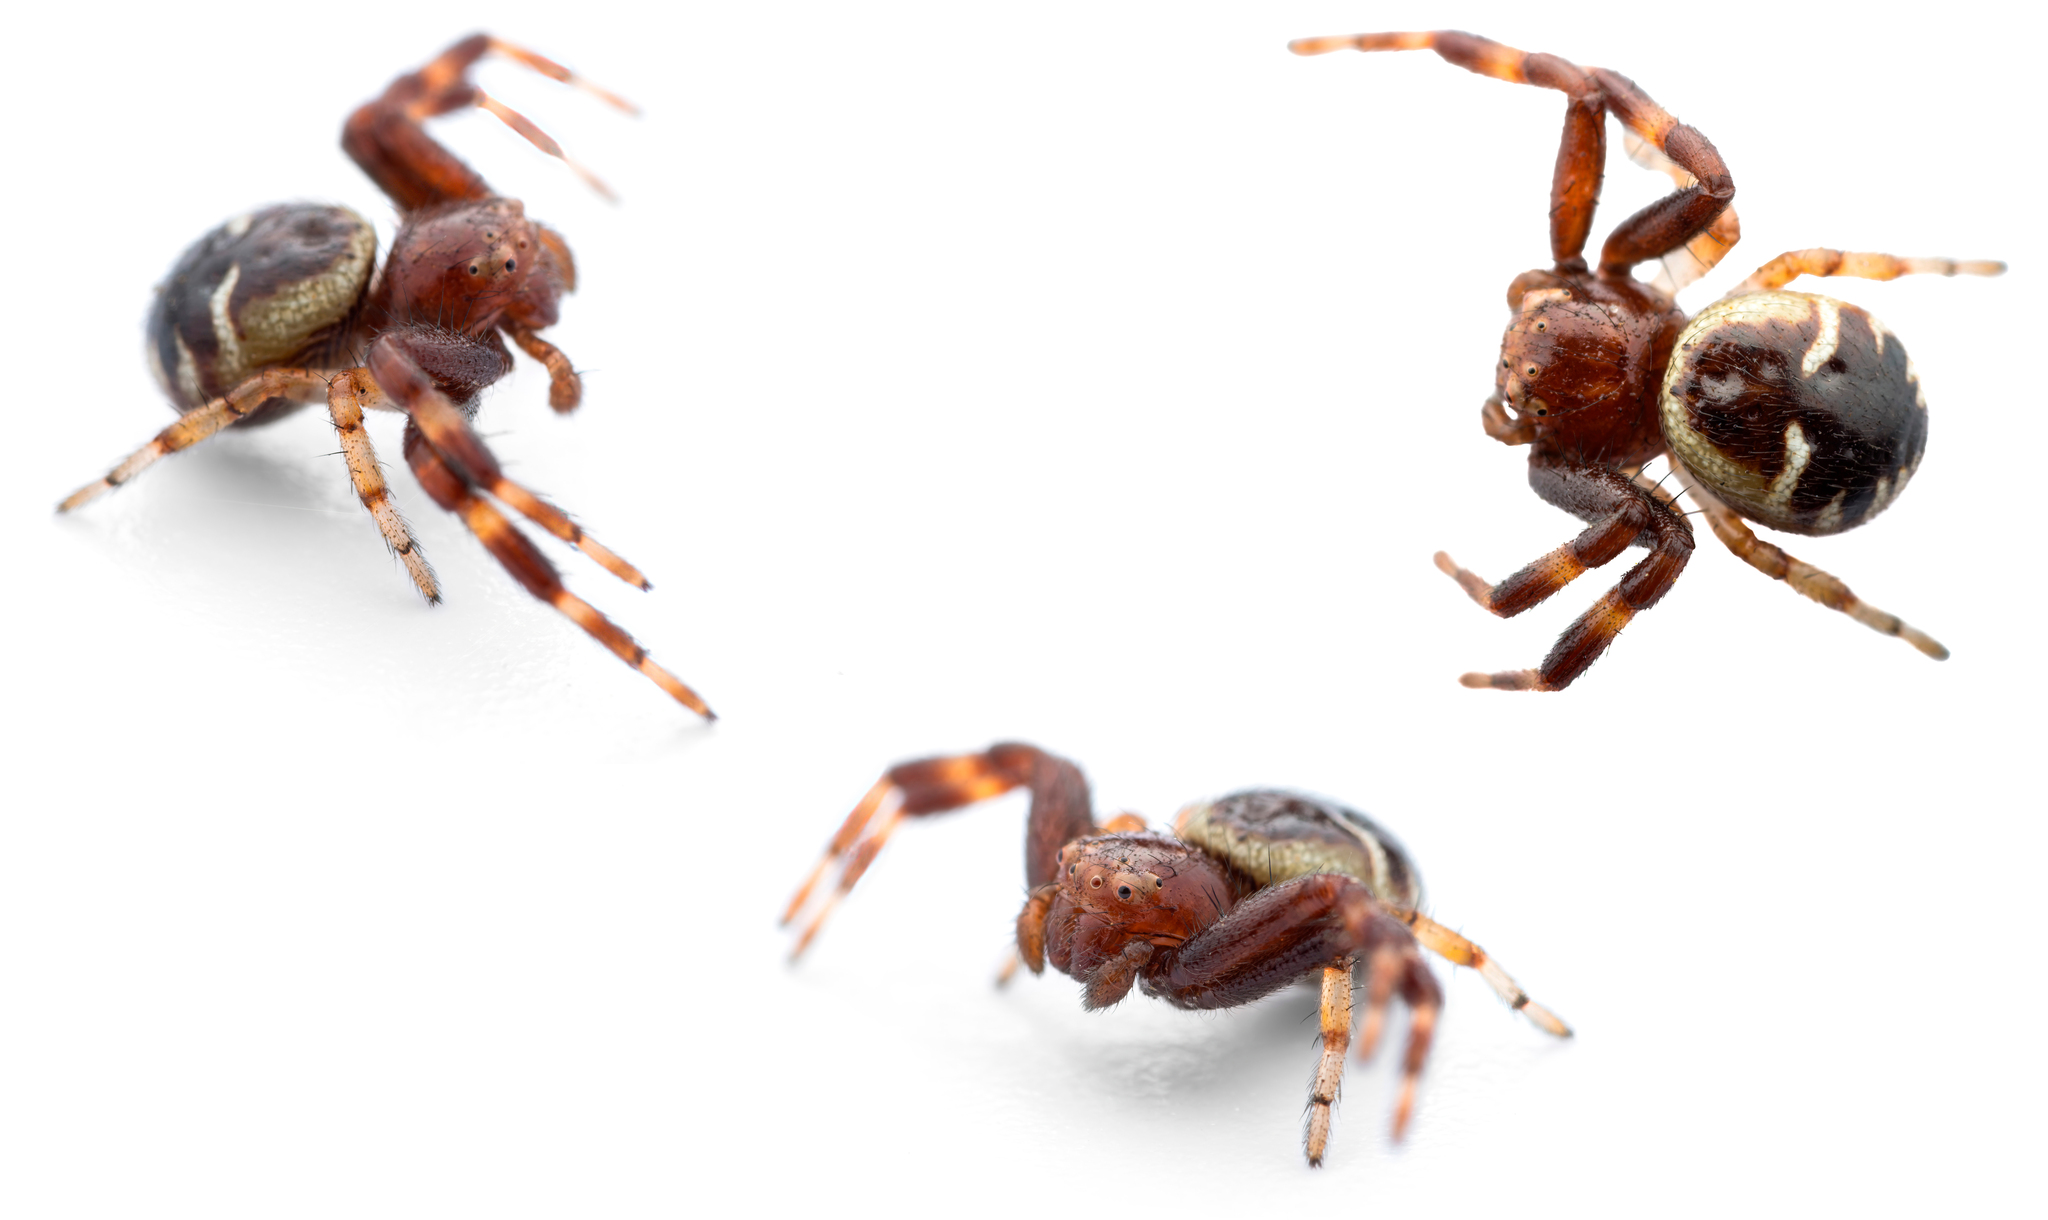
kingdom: Animalia
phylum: Arthropoda
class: Arachnida
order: Araneae
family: Thomisidae
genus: Synema
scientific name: Synema globosum
